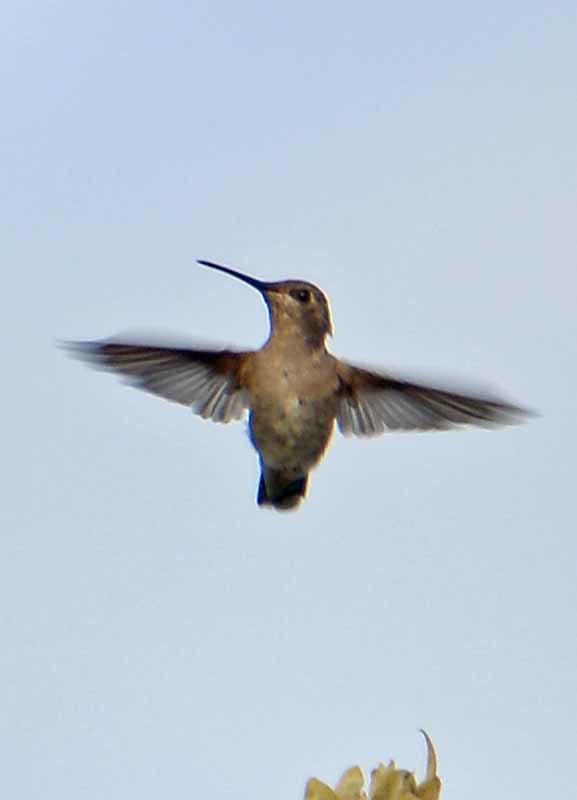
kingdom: Animalia
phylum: Chordata
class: Aves
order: Apodiformes
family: Trochilidae
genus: Cynanthus
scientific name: Cynanthus latirostris
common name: Broad-billed hummingbird
